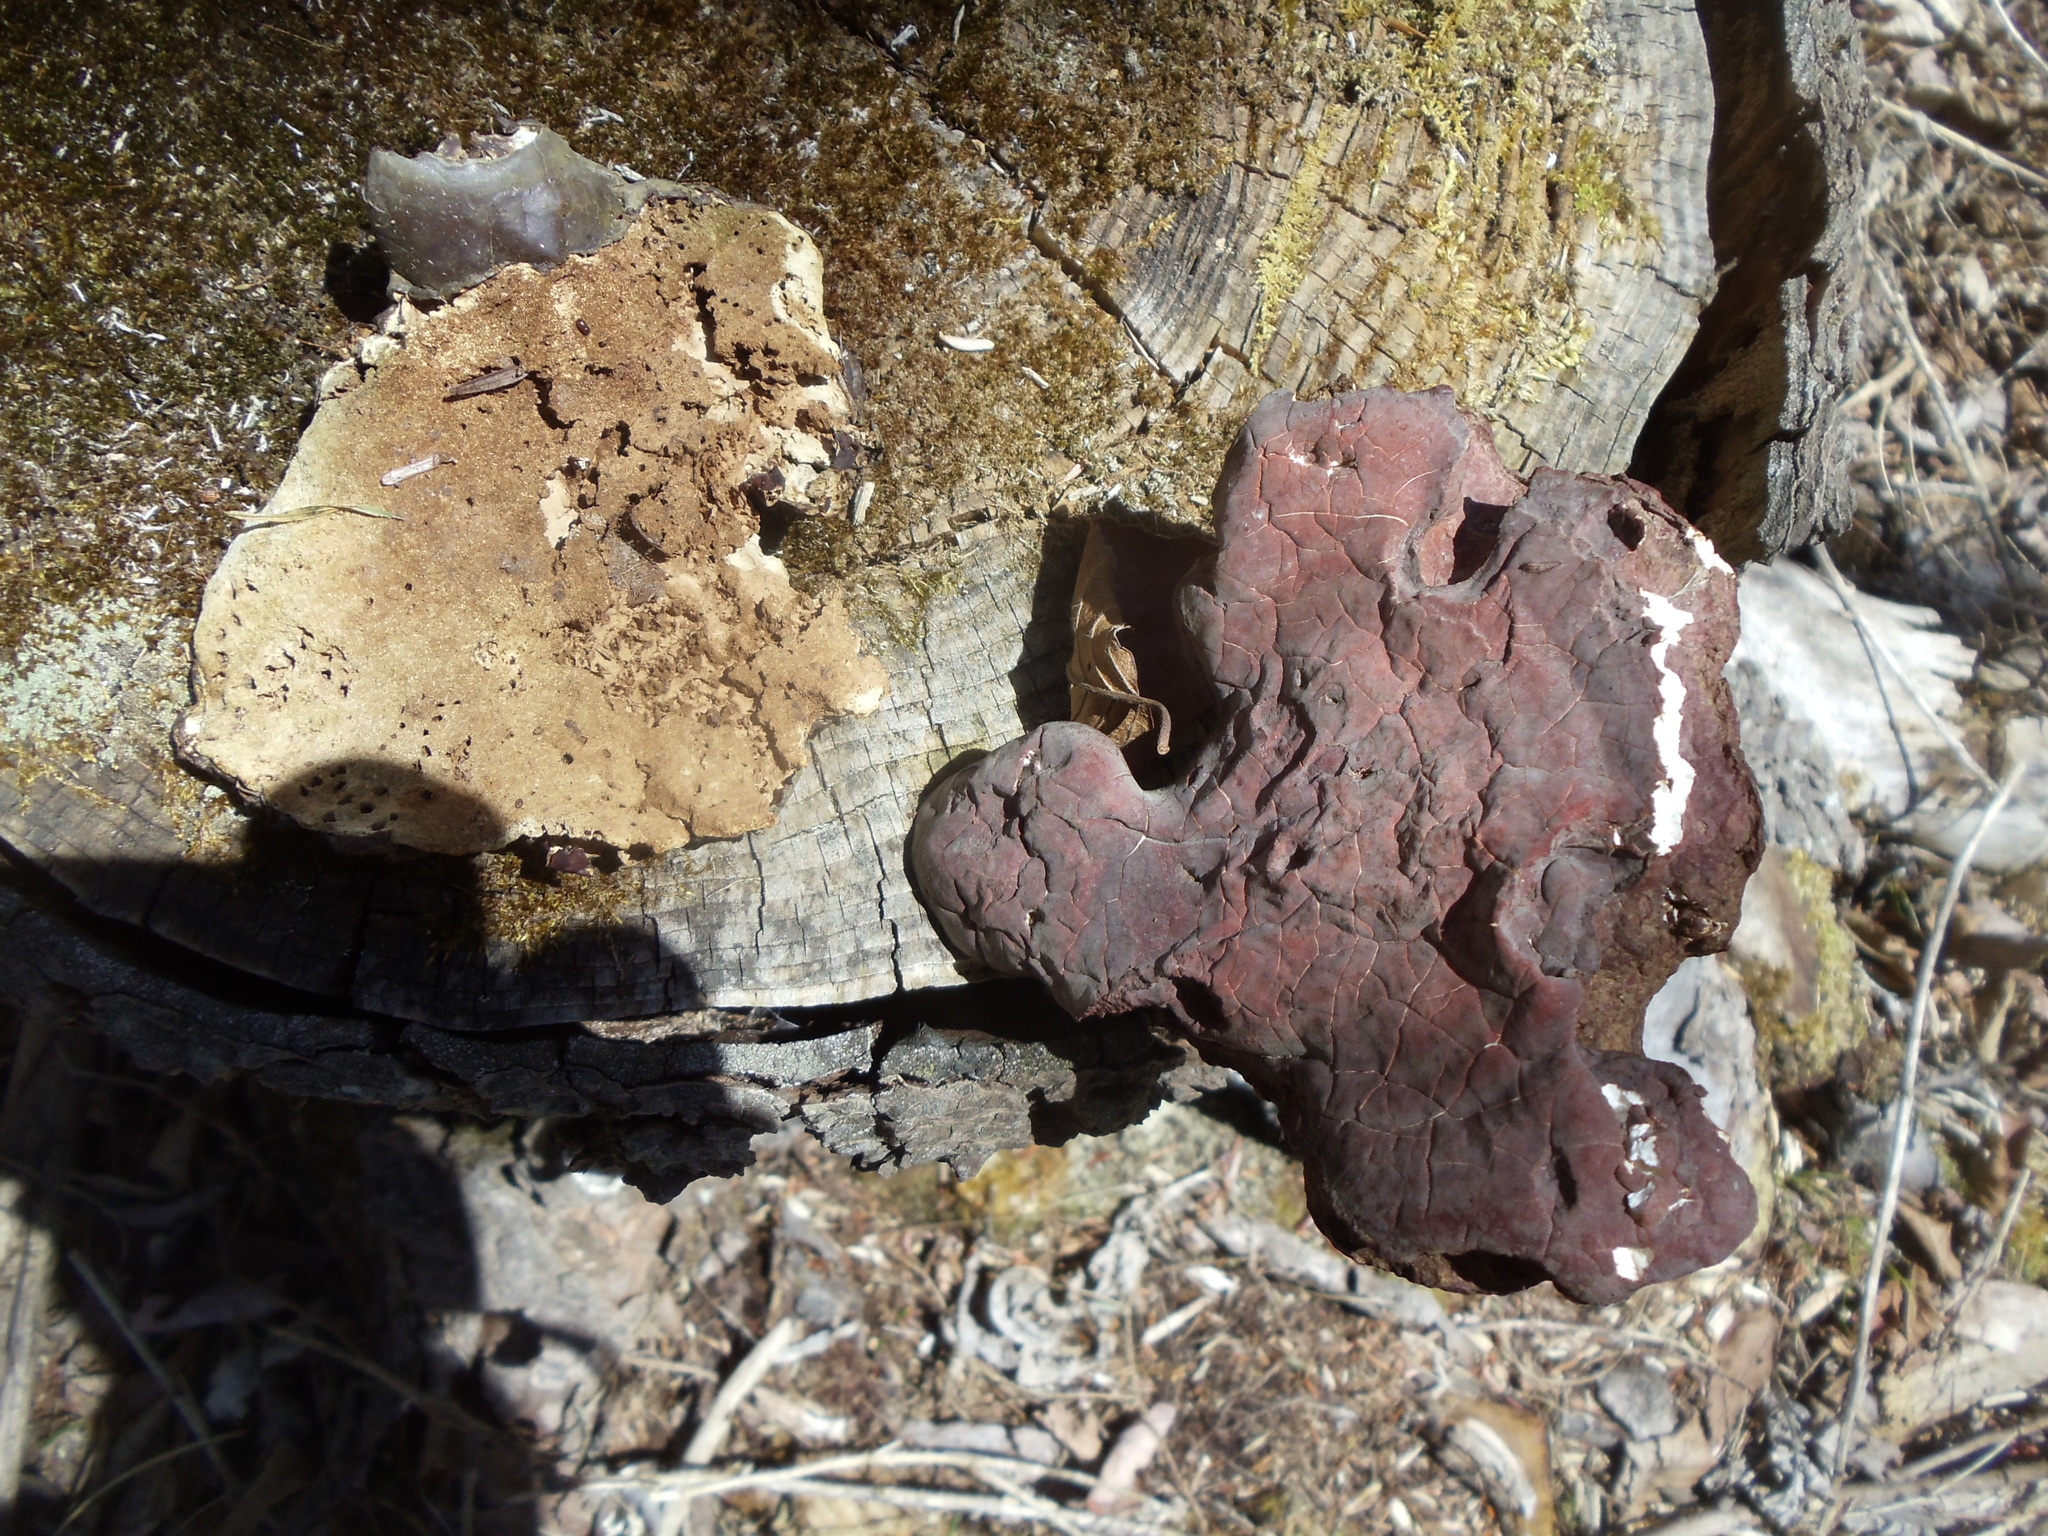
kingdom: Fungi
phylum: Basidiomycota
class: Agaricomycetes
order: Polyporales
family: Polyporaceae
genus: Ganoderma
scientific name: Ganoderma tsugae
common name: Hemlock varnish shelf
